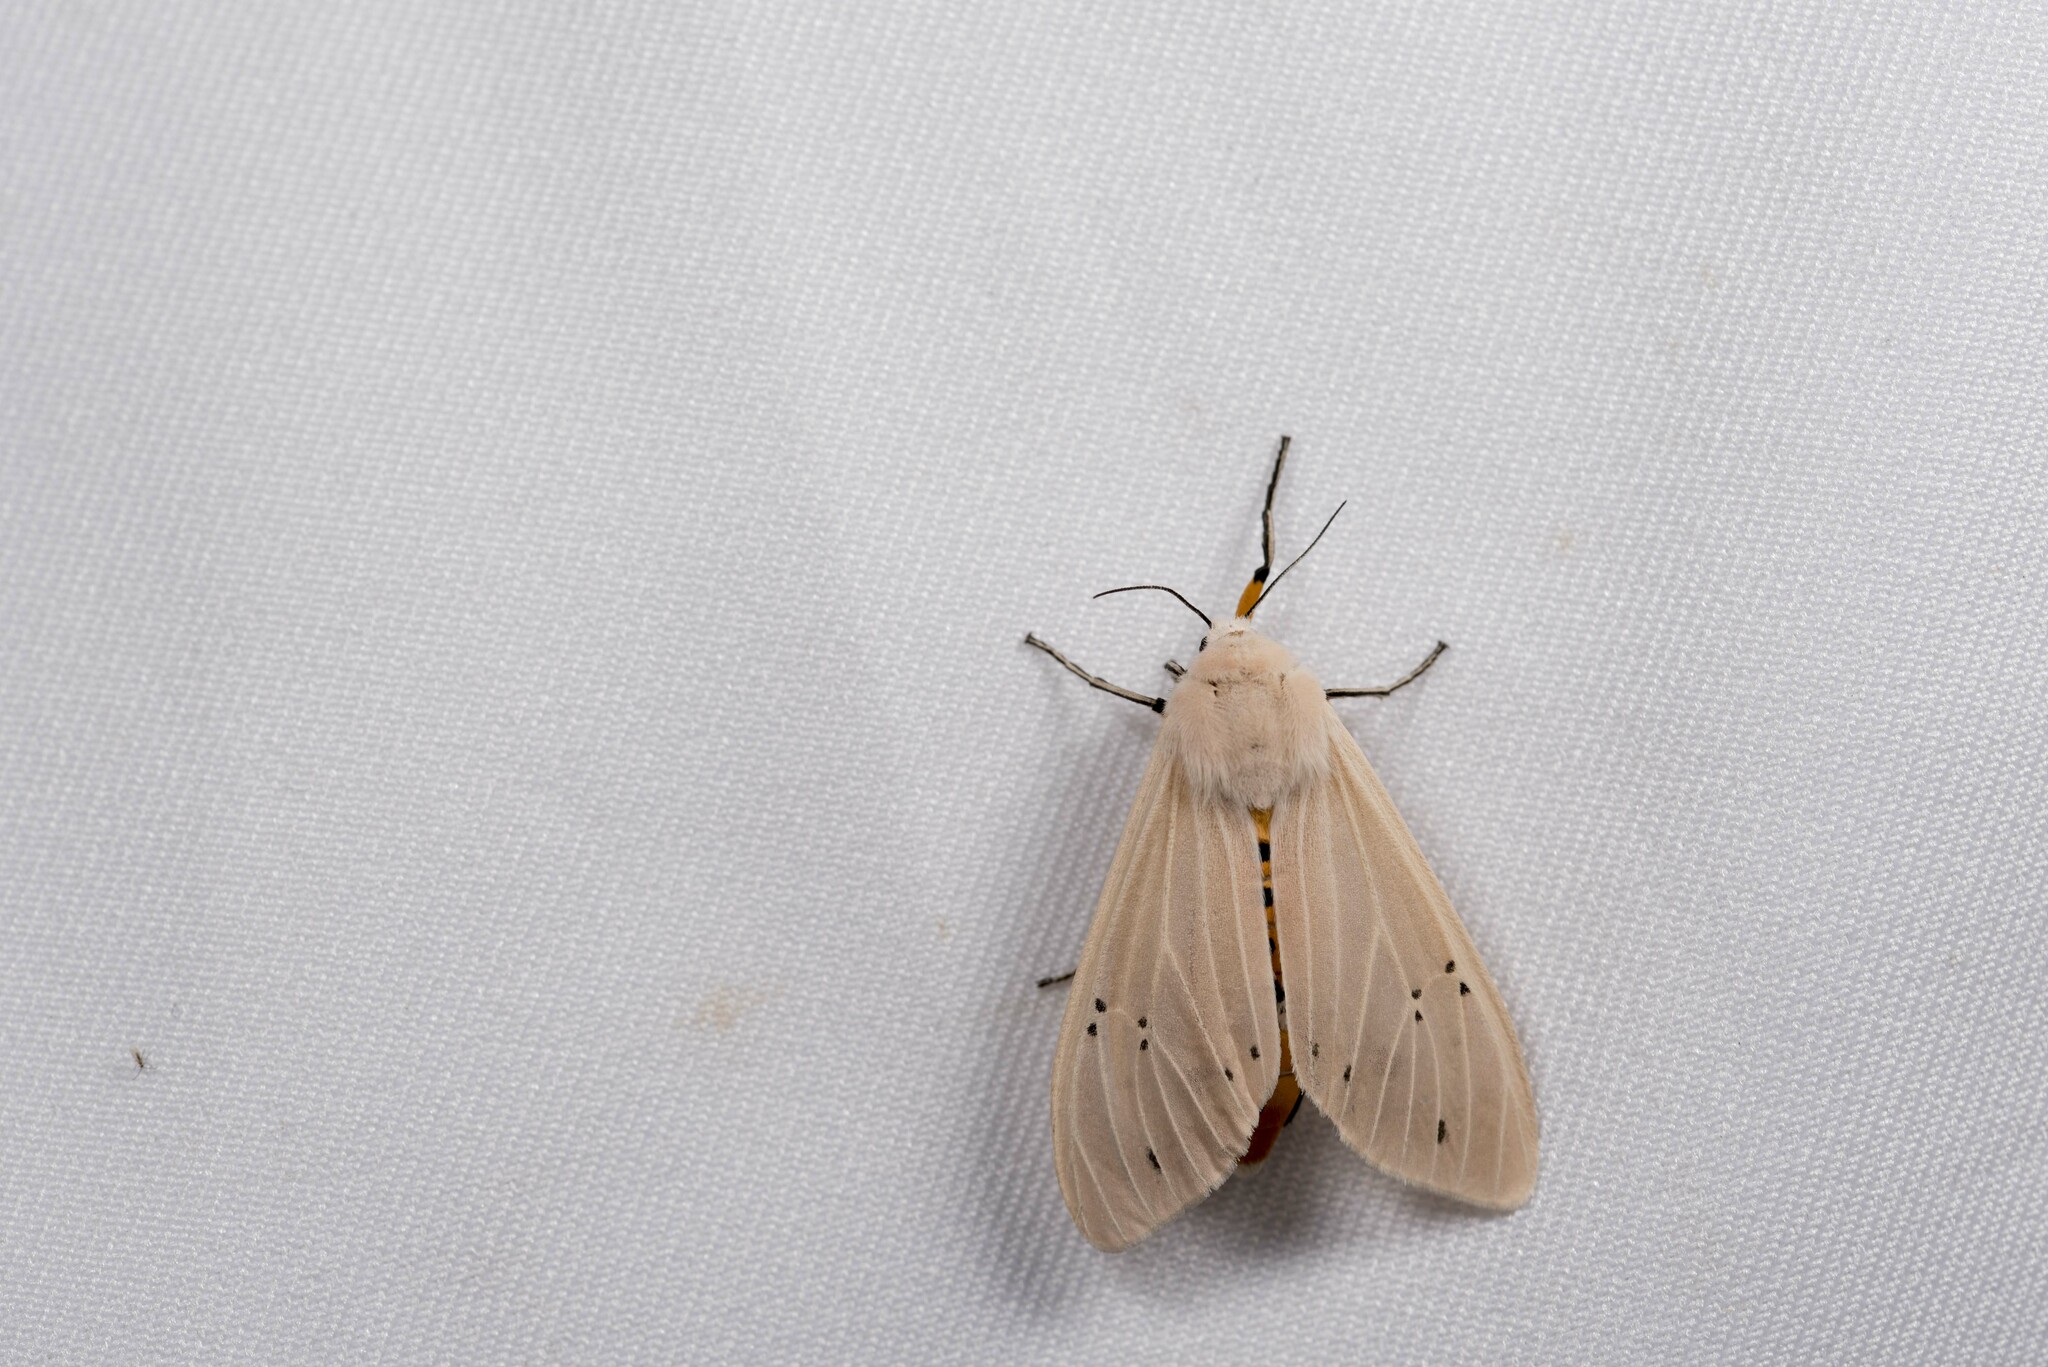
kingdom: Animalia
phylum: Arthropoda
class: Insecta
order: Lepidoptera
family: Erebidae
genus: Creatonotos
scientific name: Creatonotos transiens
